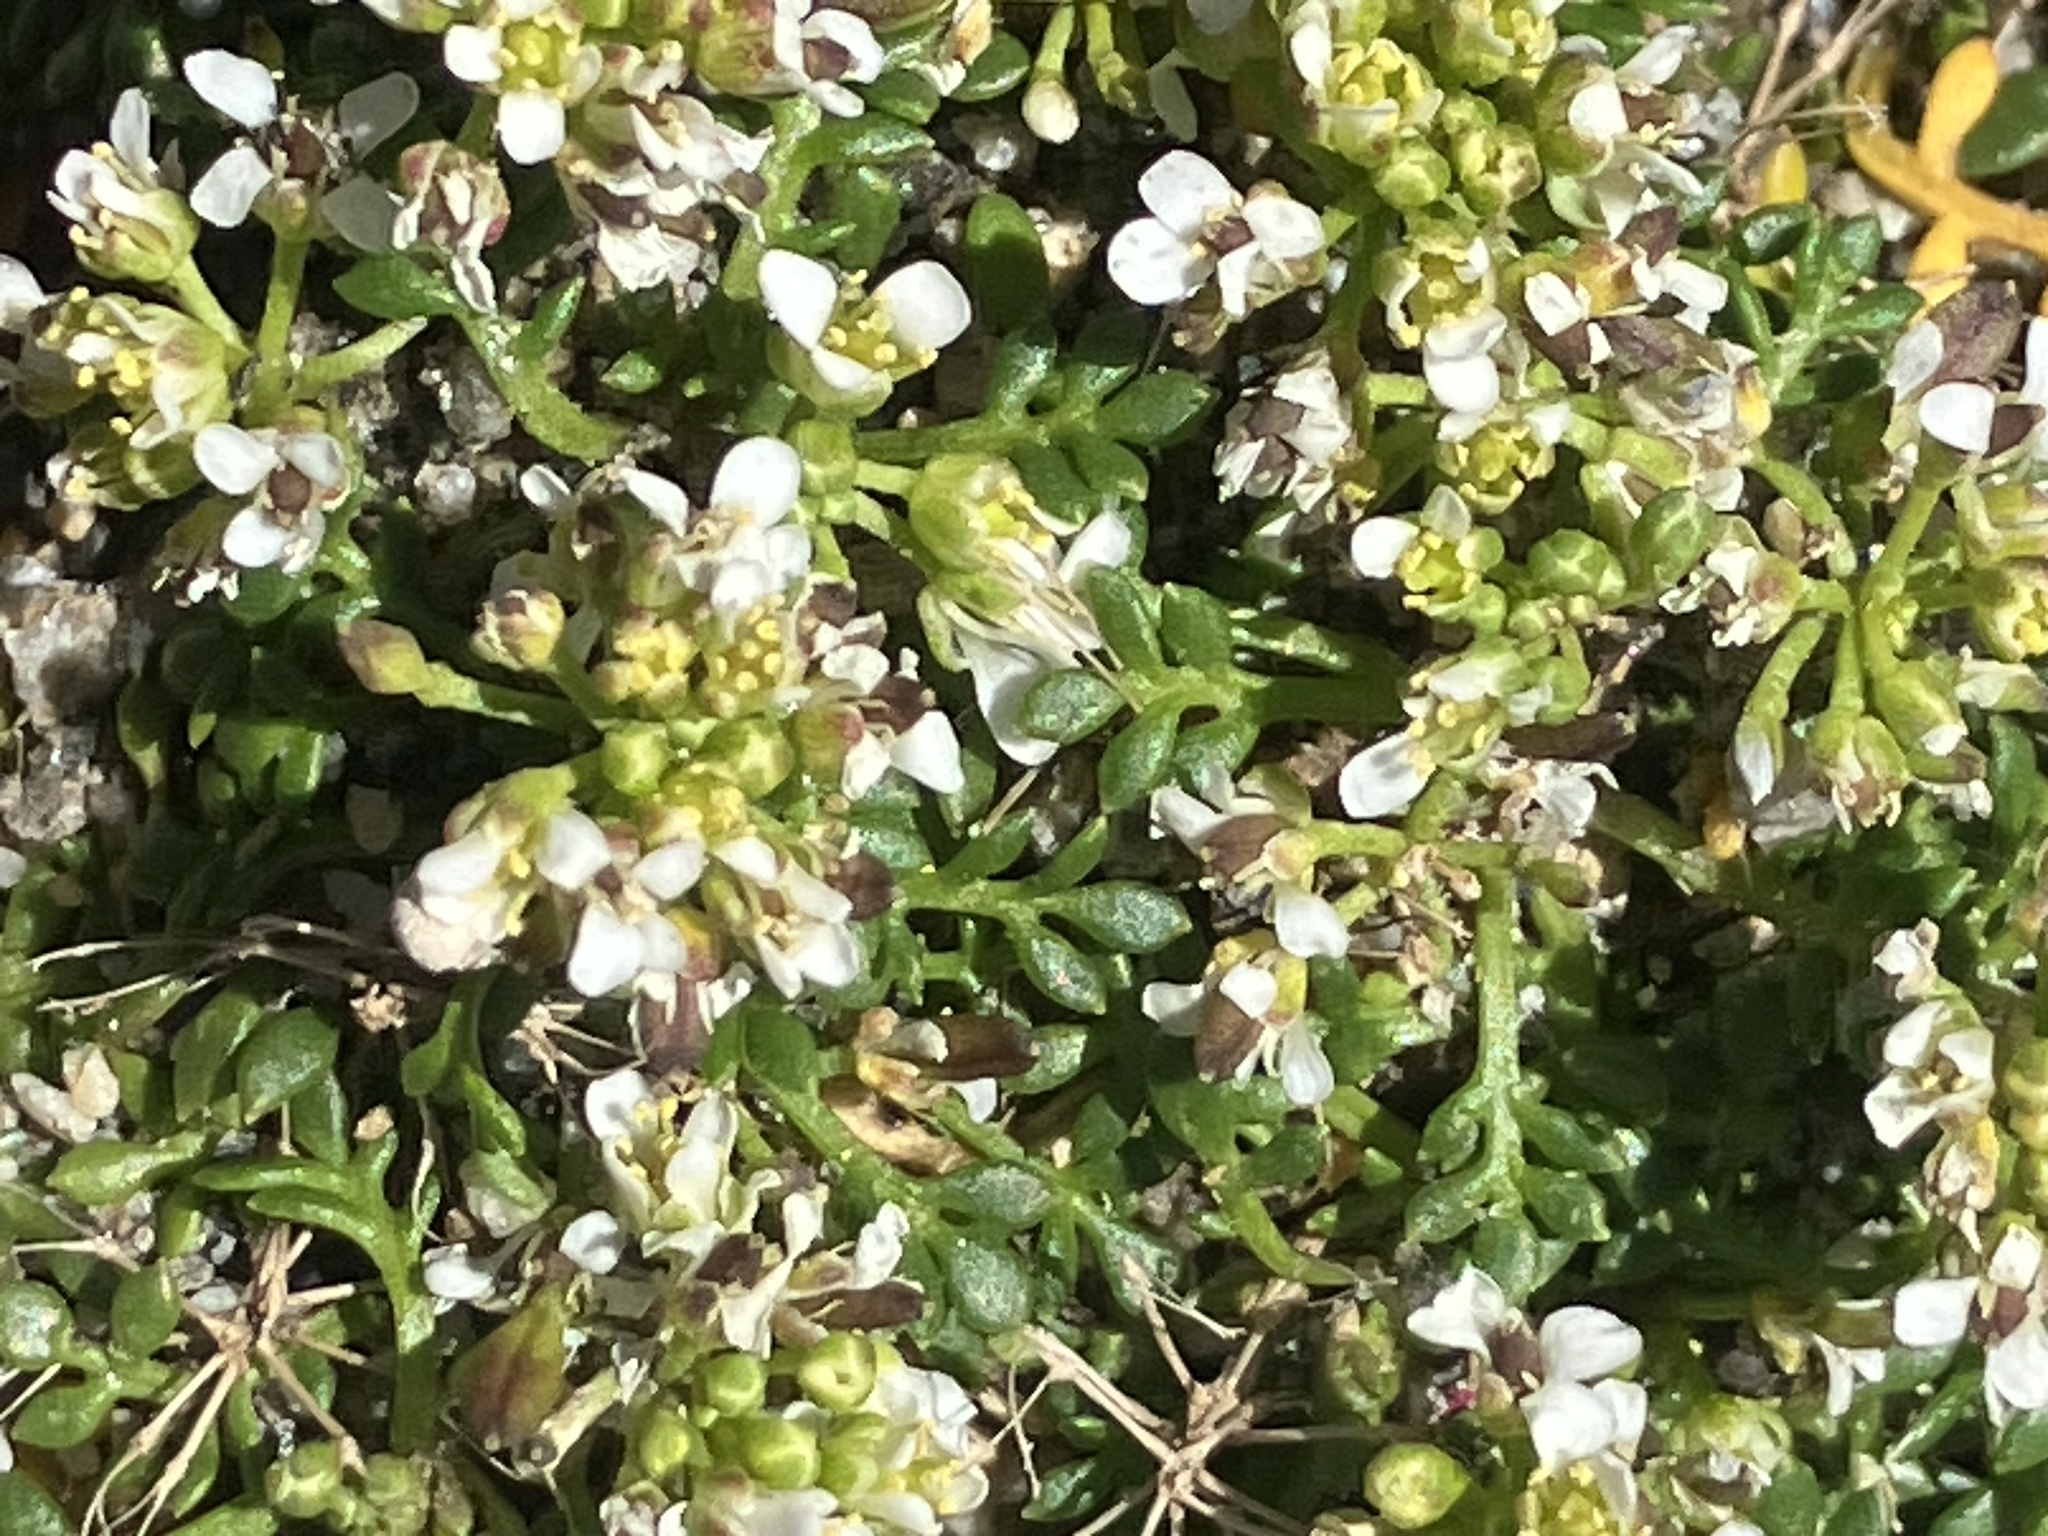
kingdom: Plantae
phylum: Tracheophyta
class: Magnoliopsida
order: Brassicales
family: Brassicaceae
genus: Hornungia
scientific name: Hornungia alpina
